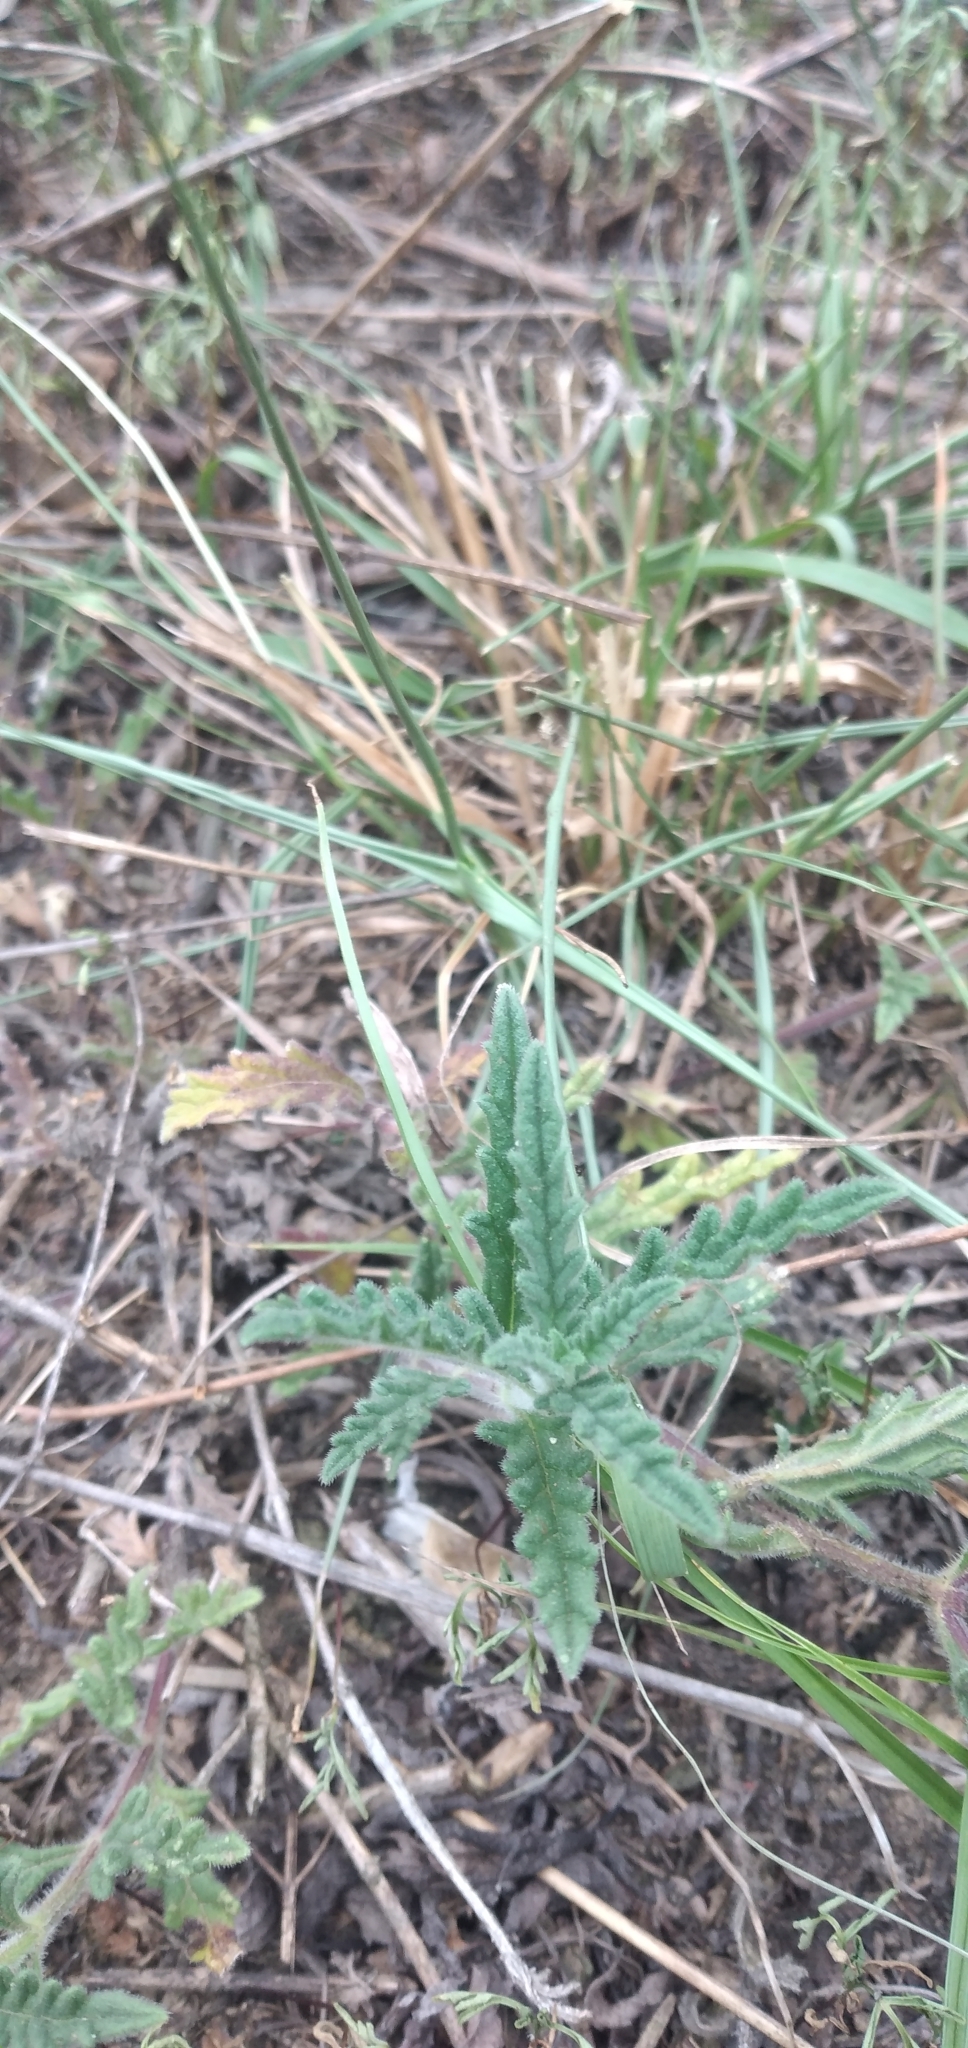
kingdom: Plantae
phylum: Tracheophyta
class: Magnoliopsida
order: Lamiales
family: Verbenaceae
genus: Verbena
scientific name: Verbena platensis
